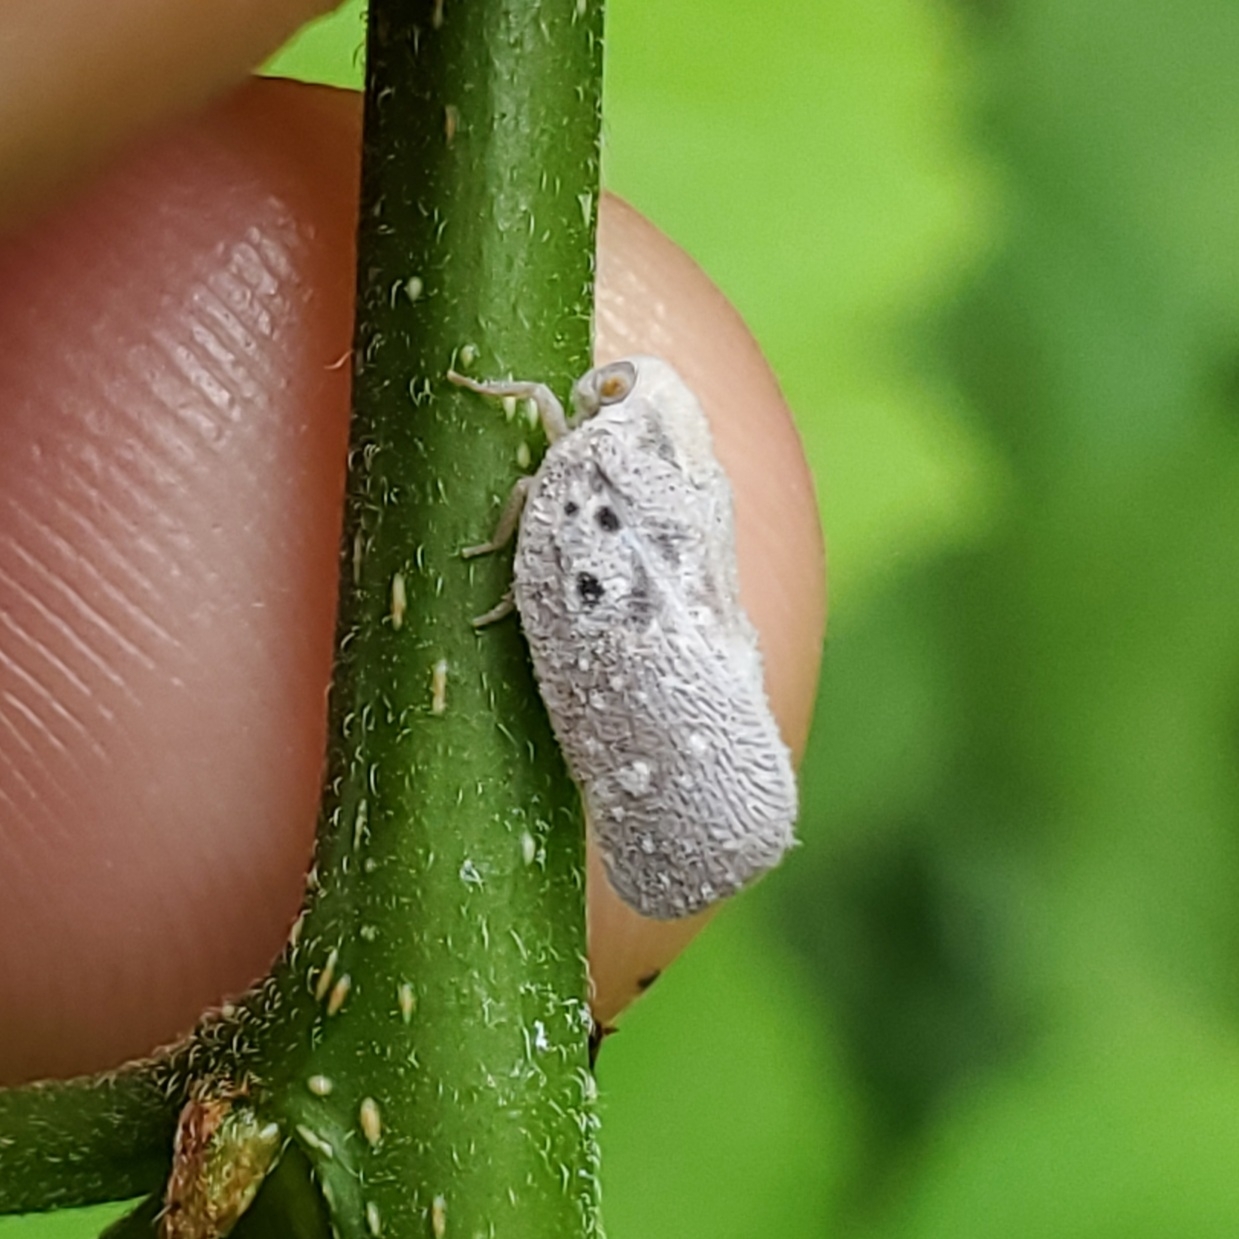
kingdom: Animalia
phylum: Arthropoda
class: Insecta
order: Hemiptera
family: Flatidae
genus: Metcalfa
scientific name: Metcalfa pruinosa
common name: Citrus flatid planthopper
